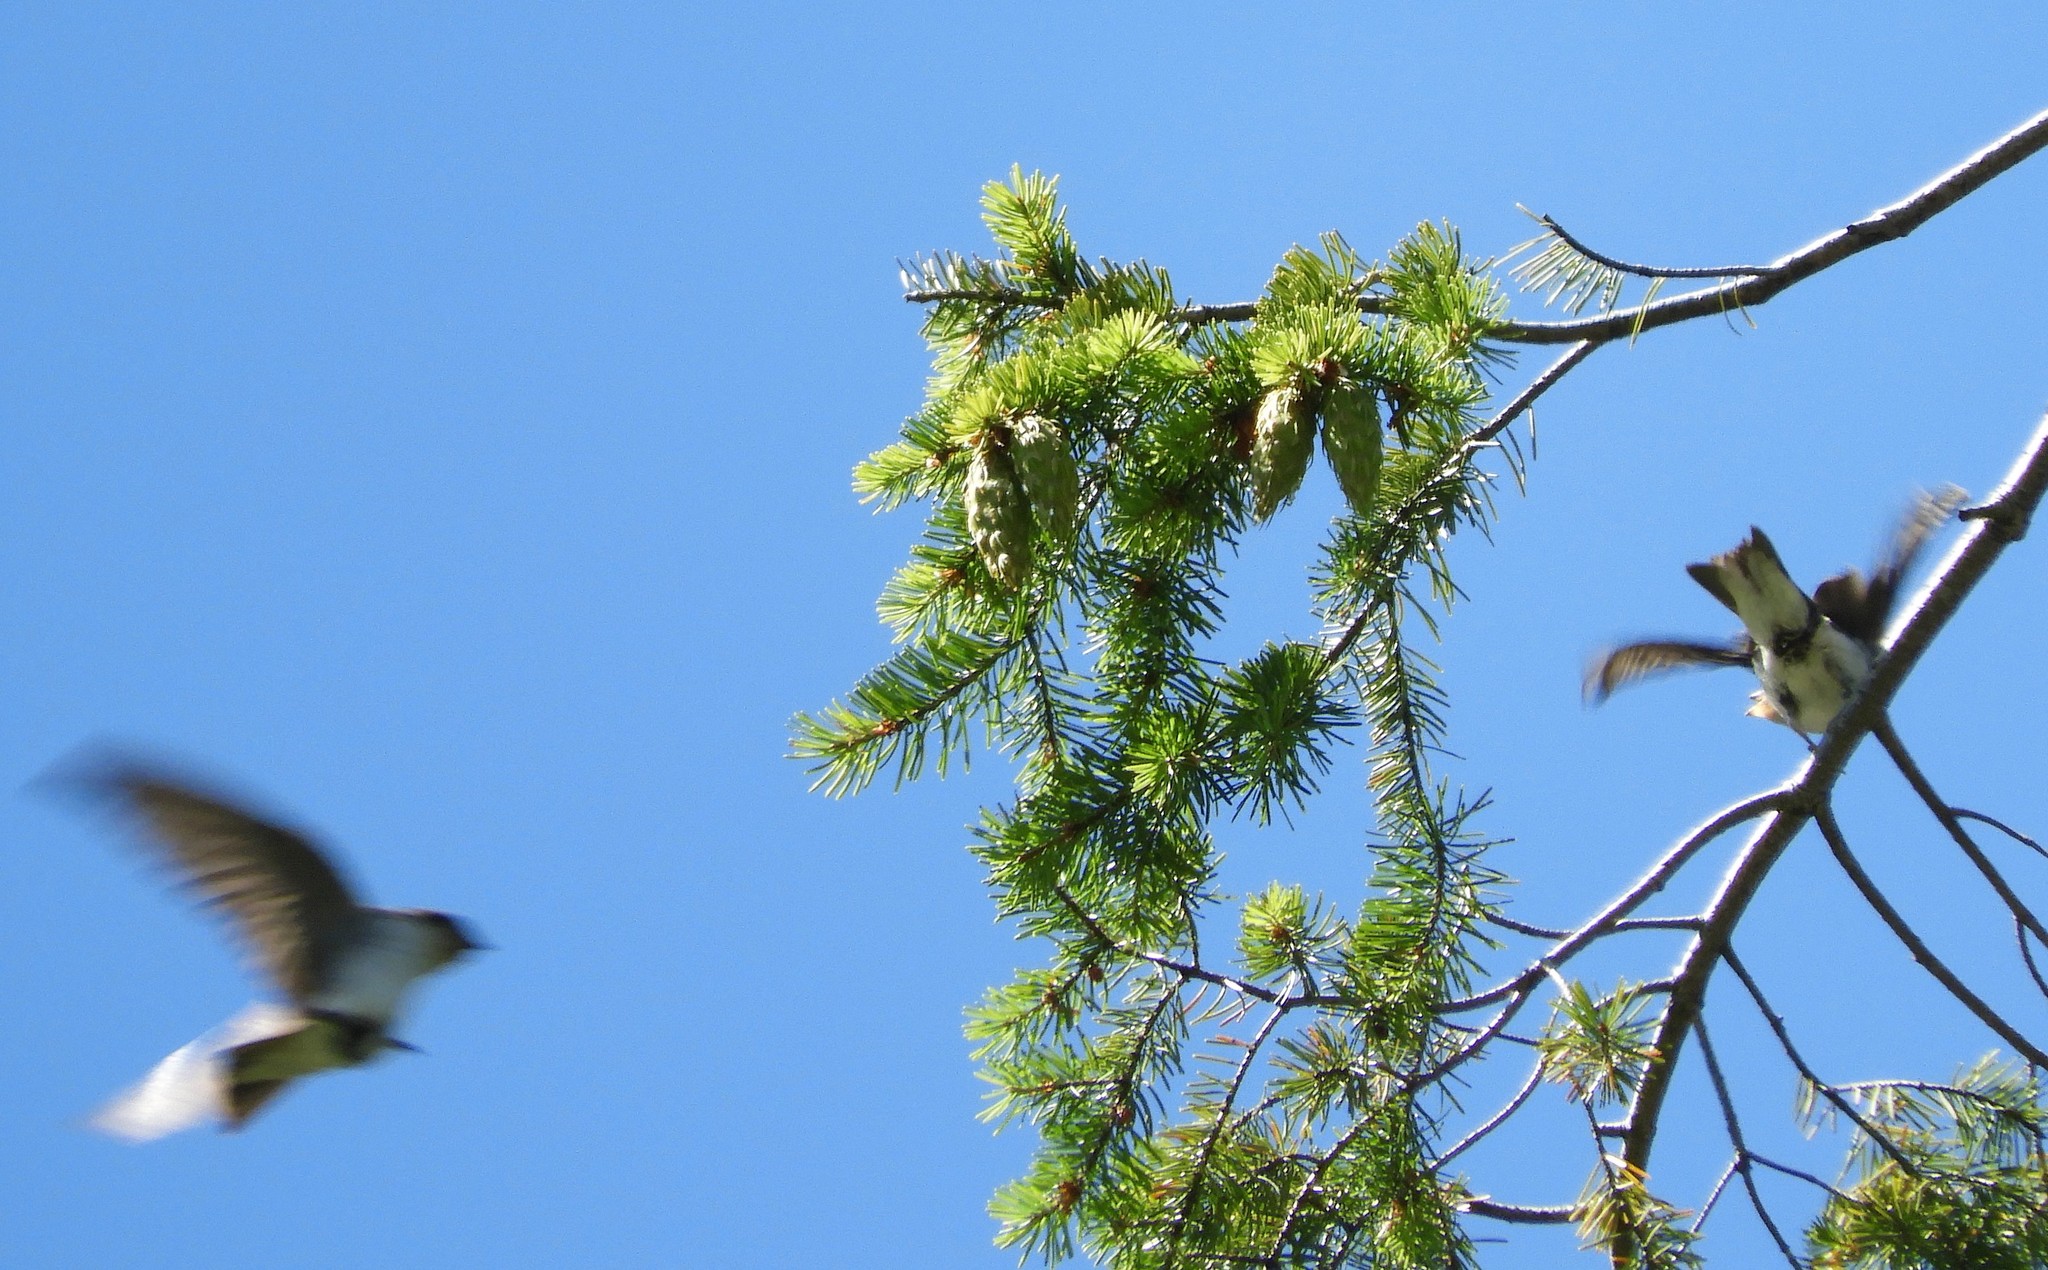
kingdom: Animalia
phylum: Chordata
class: Aves
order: Passeriformes
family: Hirundinidae
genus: Tachycineta
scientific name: Tachycineta thalassina
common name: Violet-green swallow
